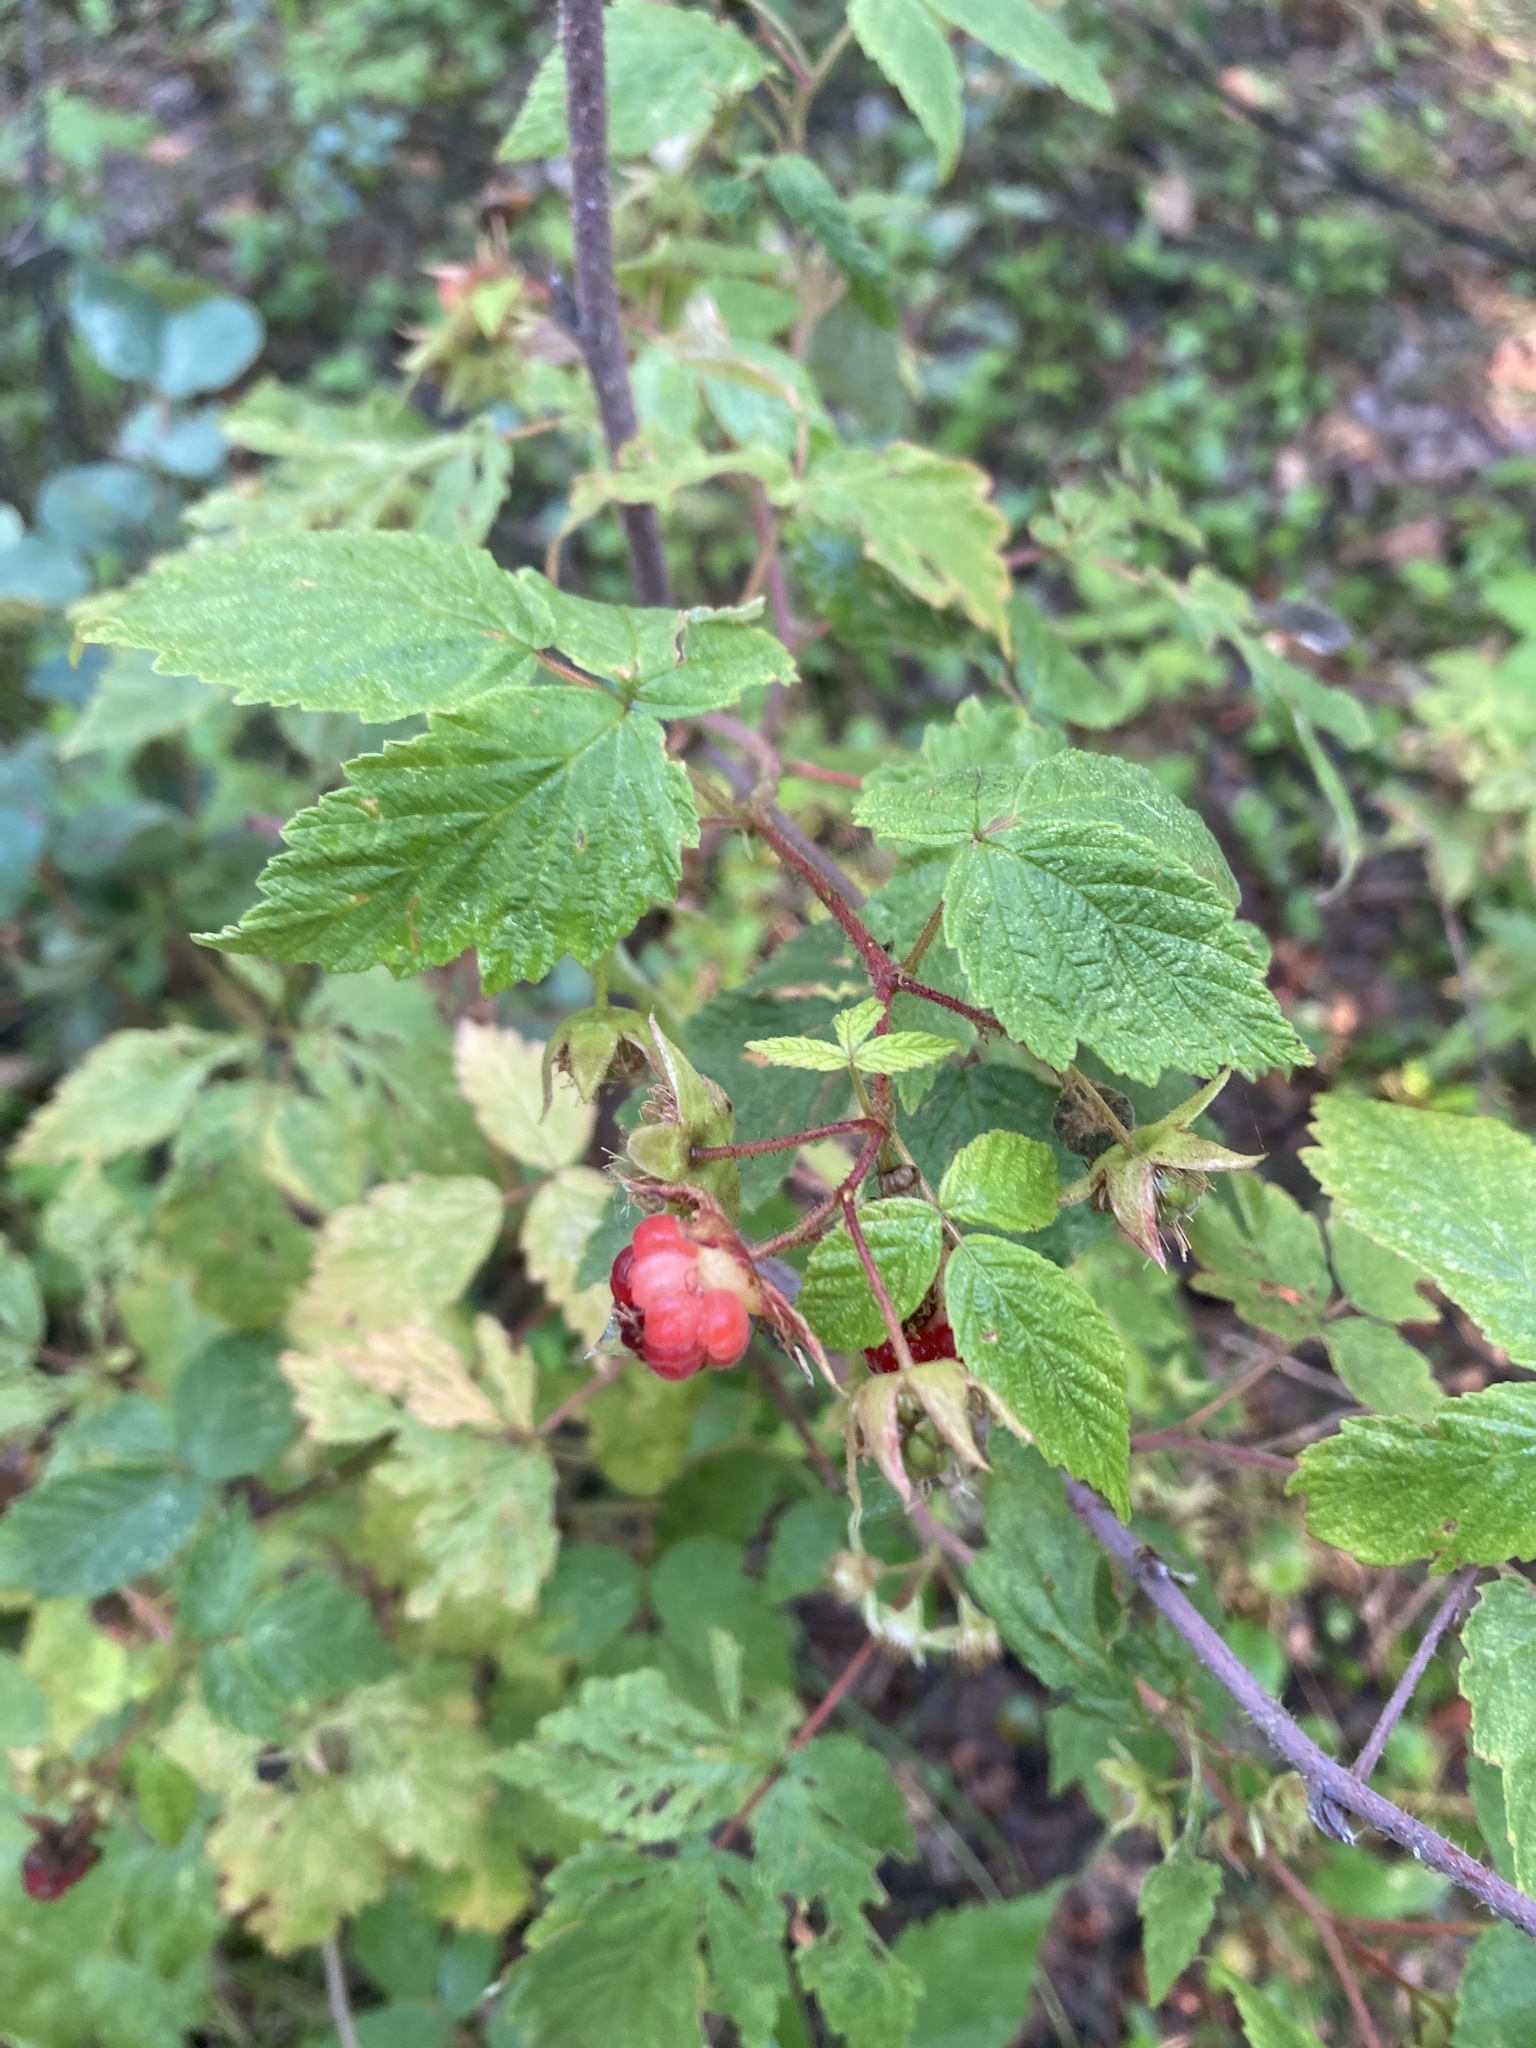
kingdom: Plantae
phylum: Tracheophyta
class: Magnoliopsida
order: Rosales
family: Rosaceae
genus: Rubus
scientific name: Rubus idaeus
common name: Raspberry
